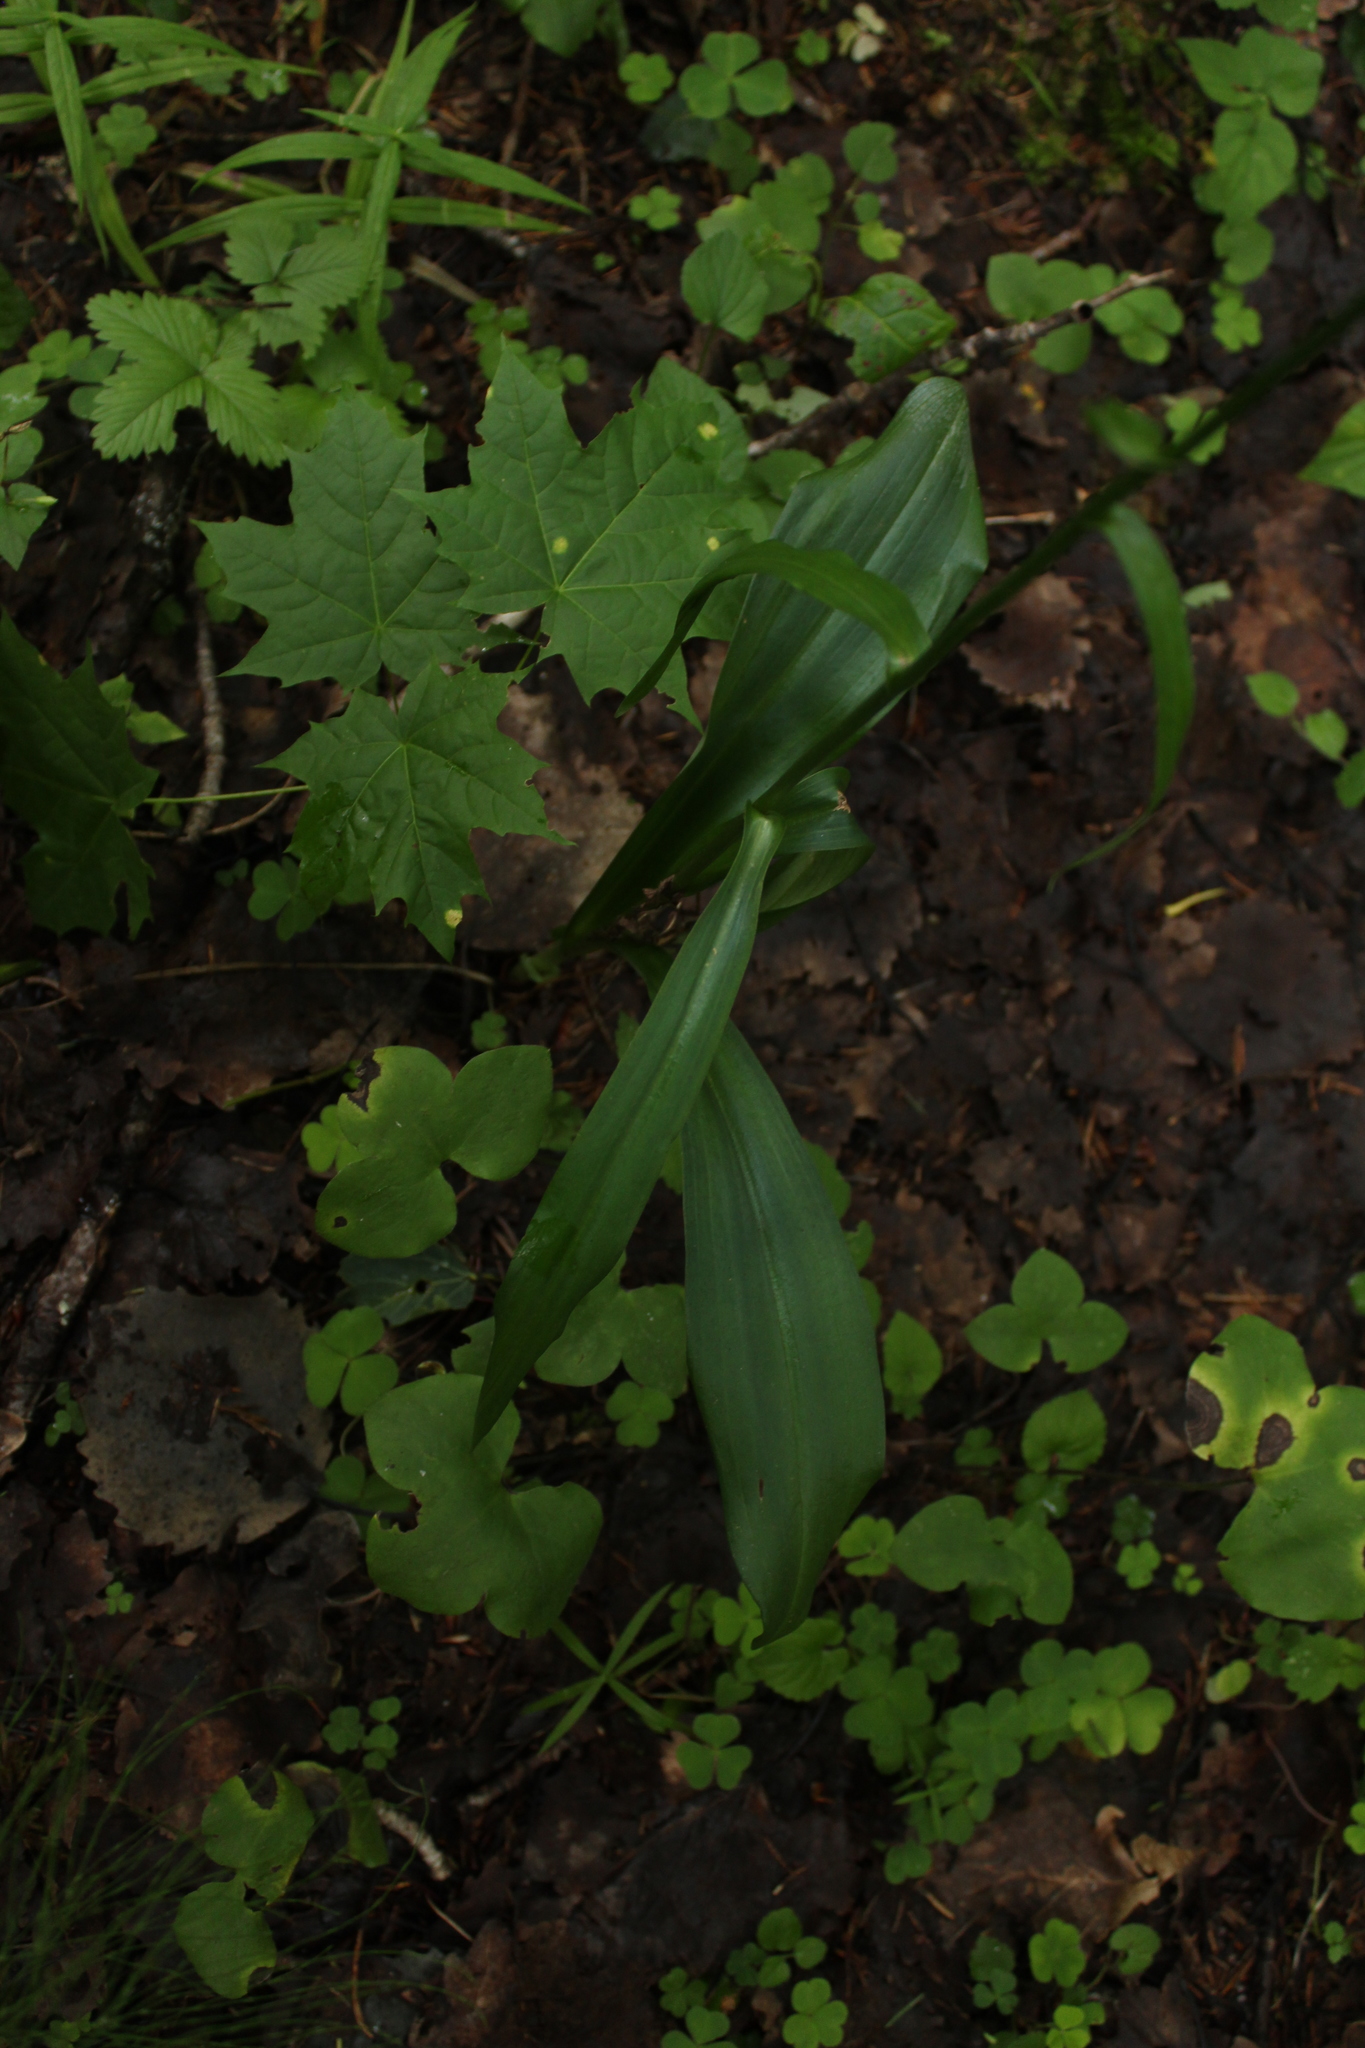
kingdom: Plantae
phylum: Tracheophyta
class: Liliopsida
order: Asparagales
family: Orchidaceae
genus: Dactylorhiza
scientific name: Dactylorhiza maculata
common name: Heath spotted-orchid
